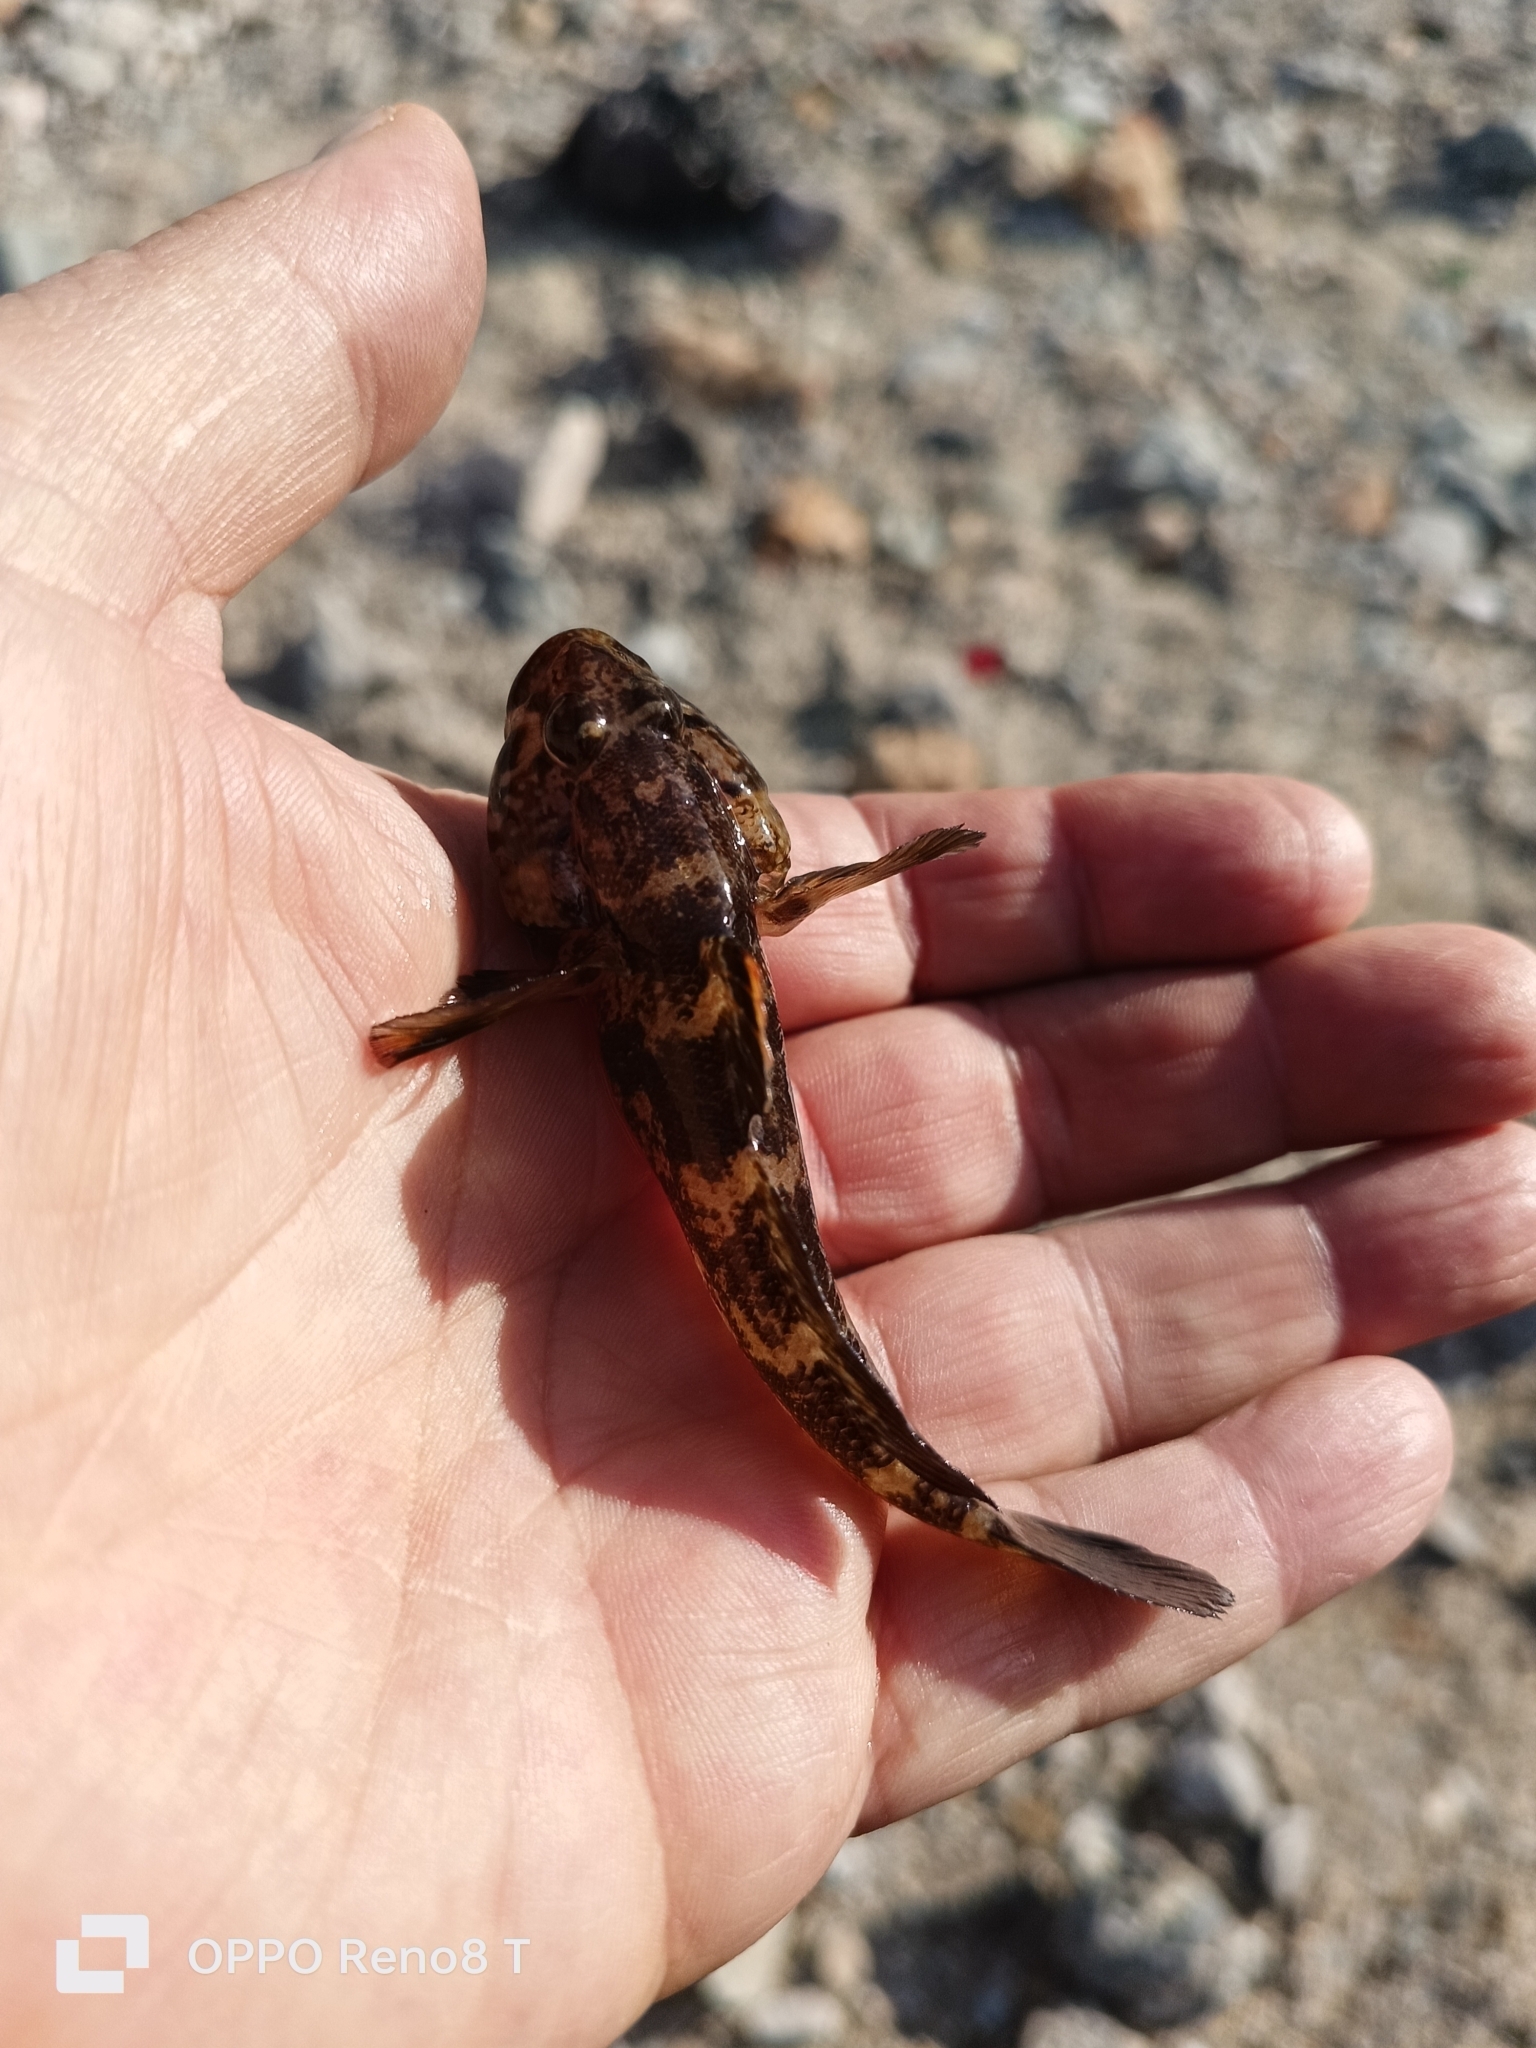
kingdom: Animalia
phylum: Chordata
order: Perciformes
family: Gobiidae
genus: Gobius
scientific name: Gobius paganellus
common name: Rock goby
